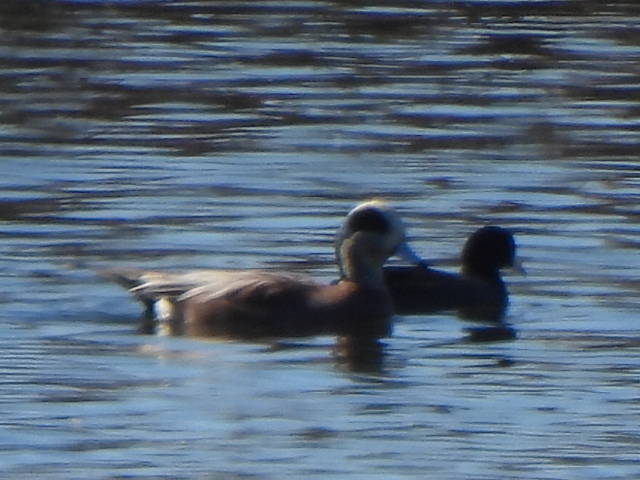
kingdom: Animalia
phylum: Chordata
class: Aves
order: Anseriformes
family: Anatidae
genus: Mareca
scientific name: Mareca americana
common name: American wigeon
